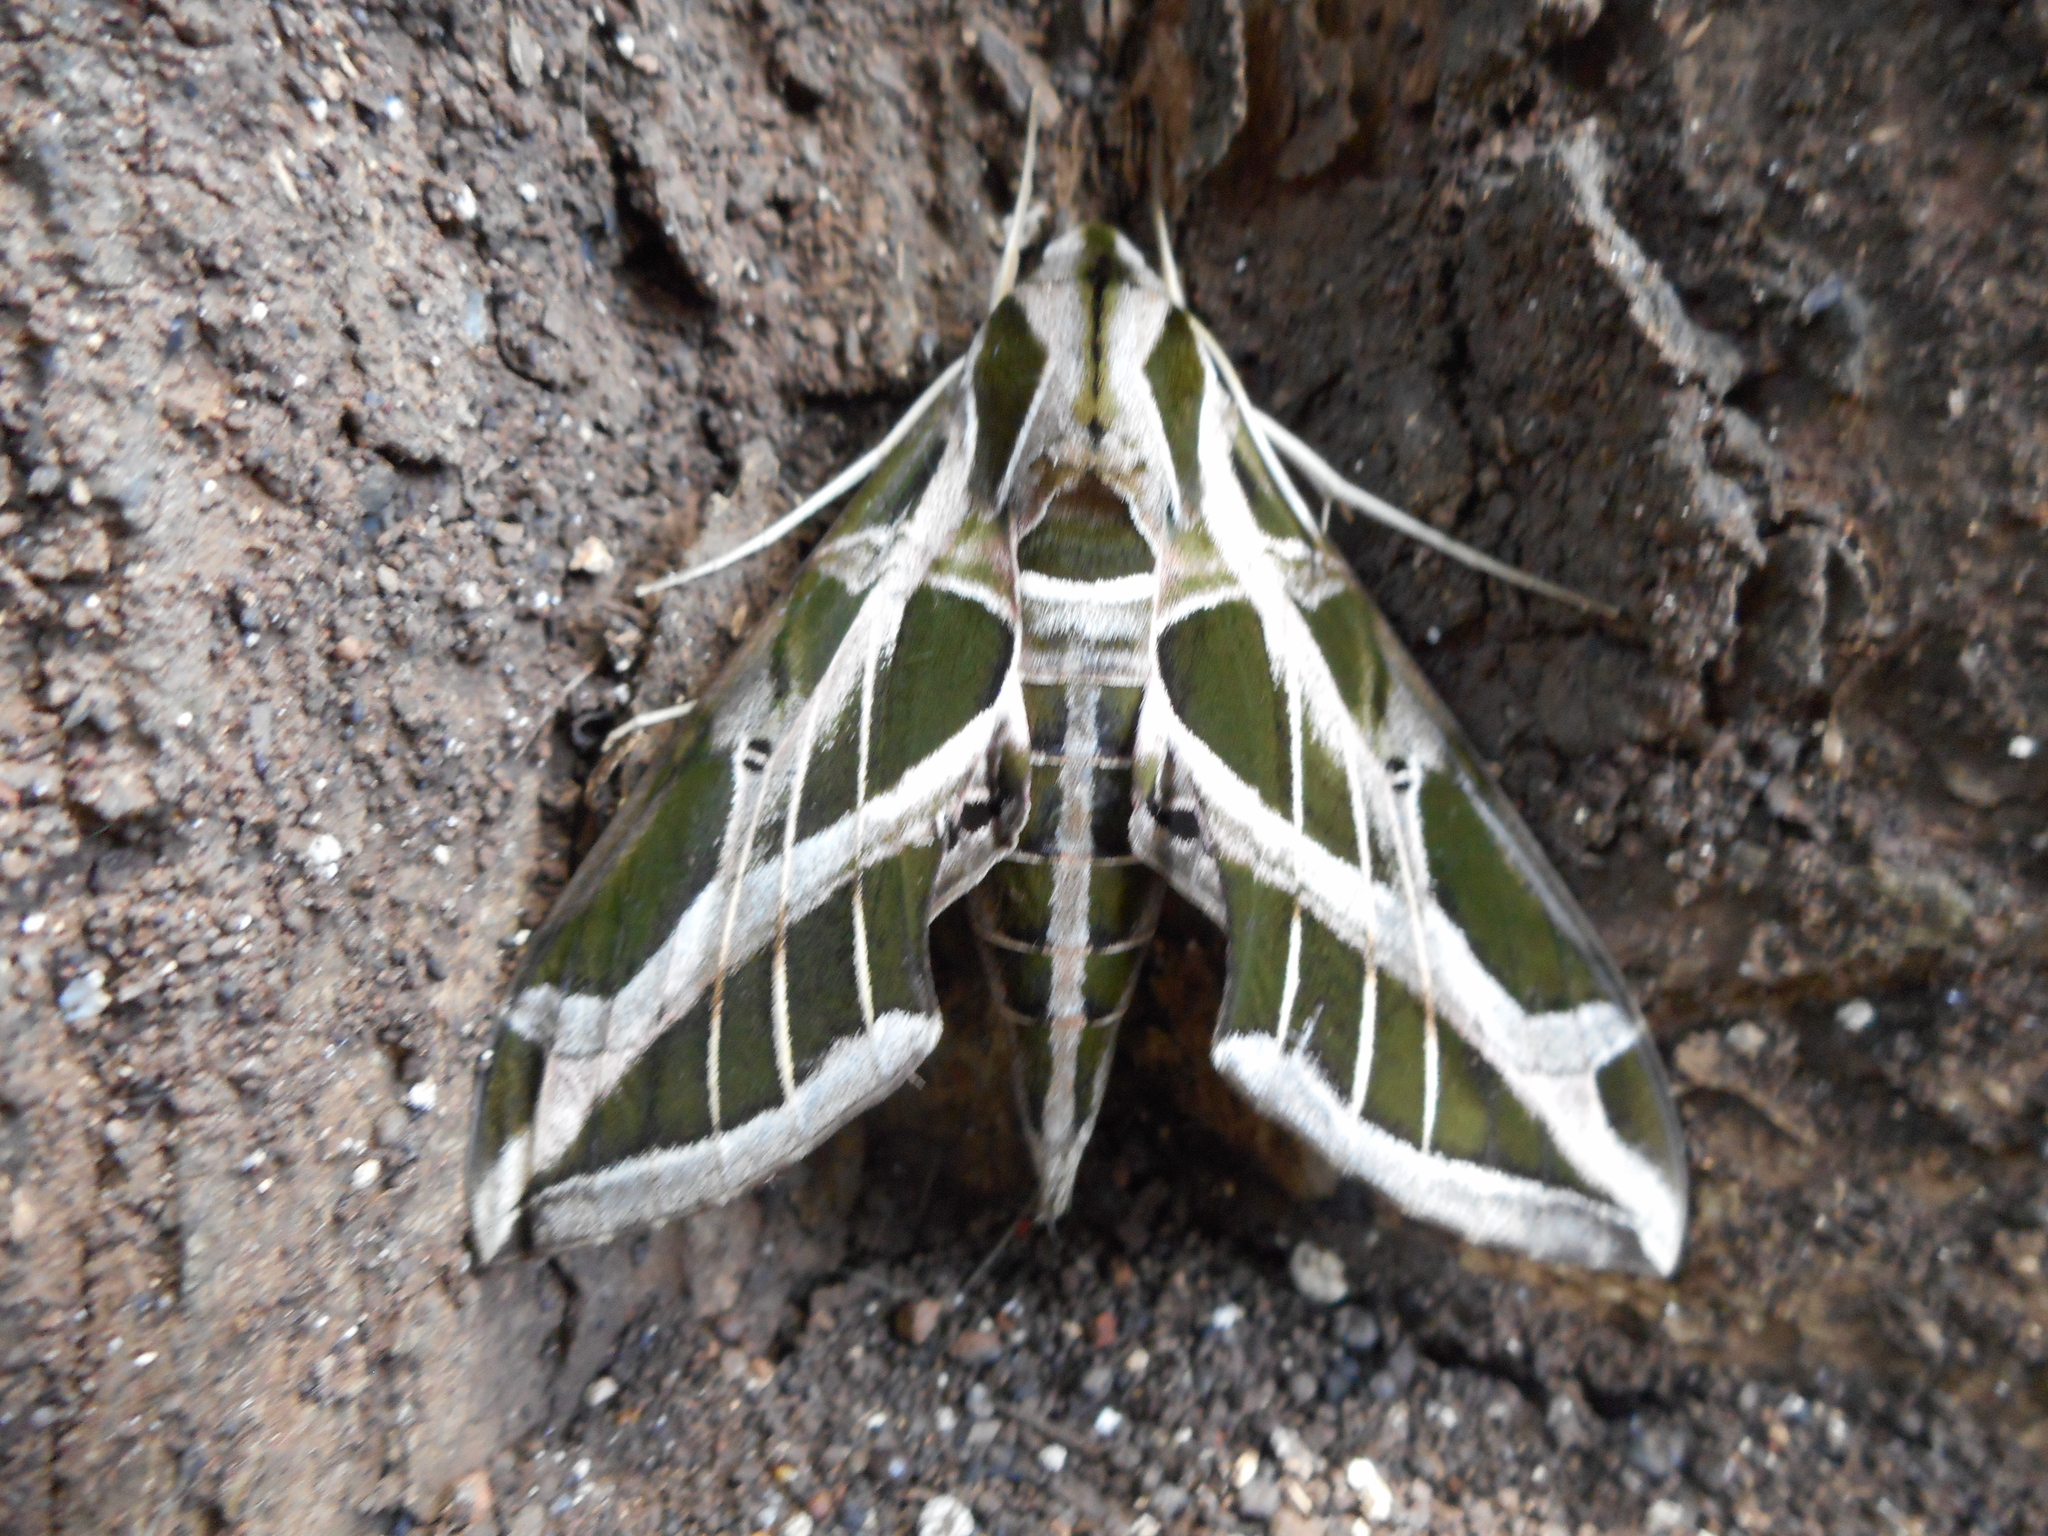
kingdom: Animalia
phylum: Arthropoda
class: Insecta
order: Lepidoptera
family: Sphingidae
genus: Eumorpha
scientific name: Eumorpha vitis
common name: Vine sphinx
